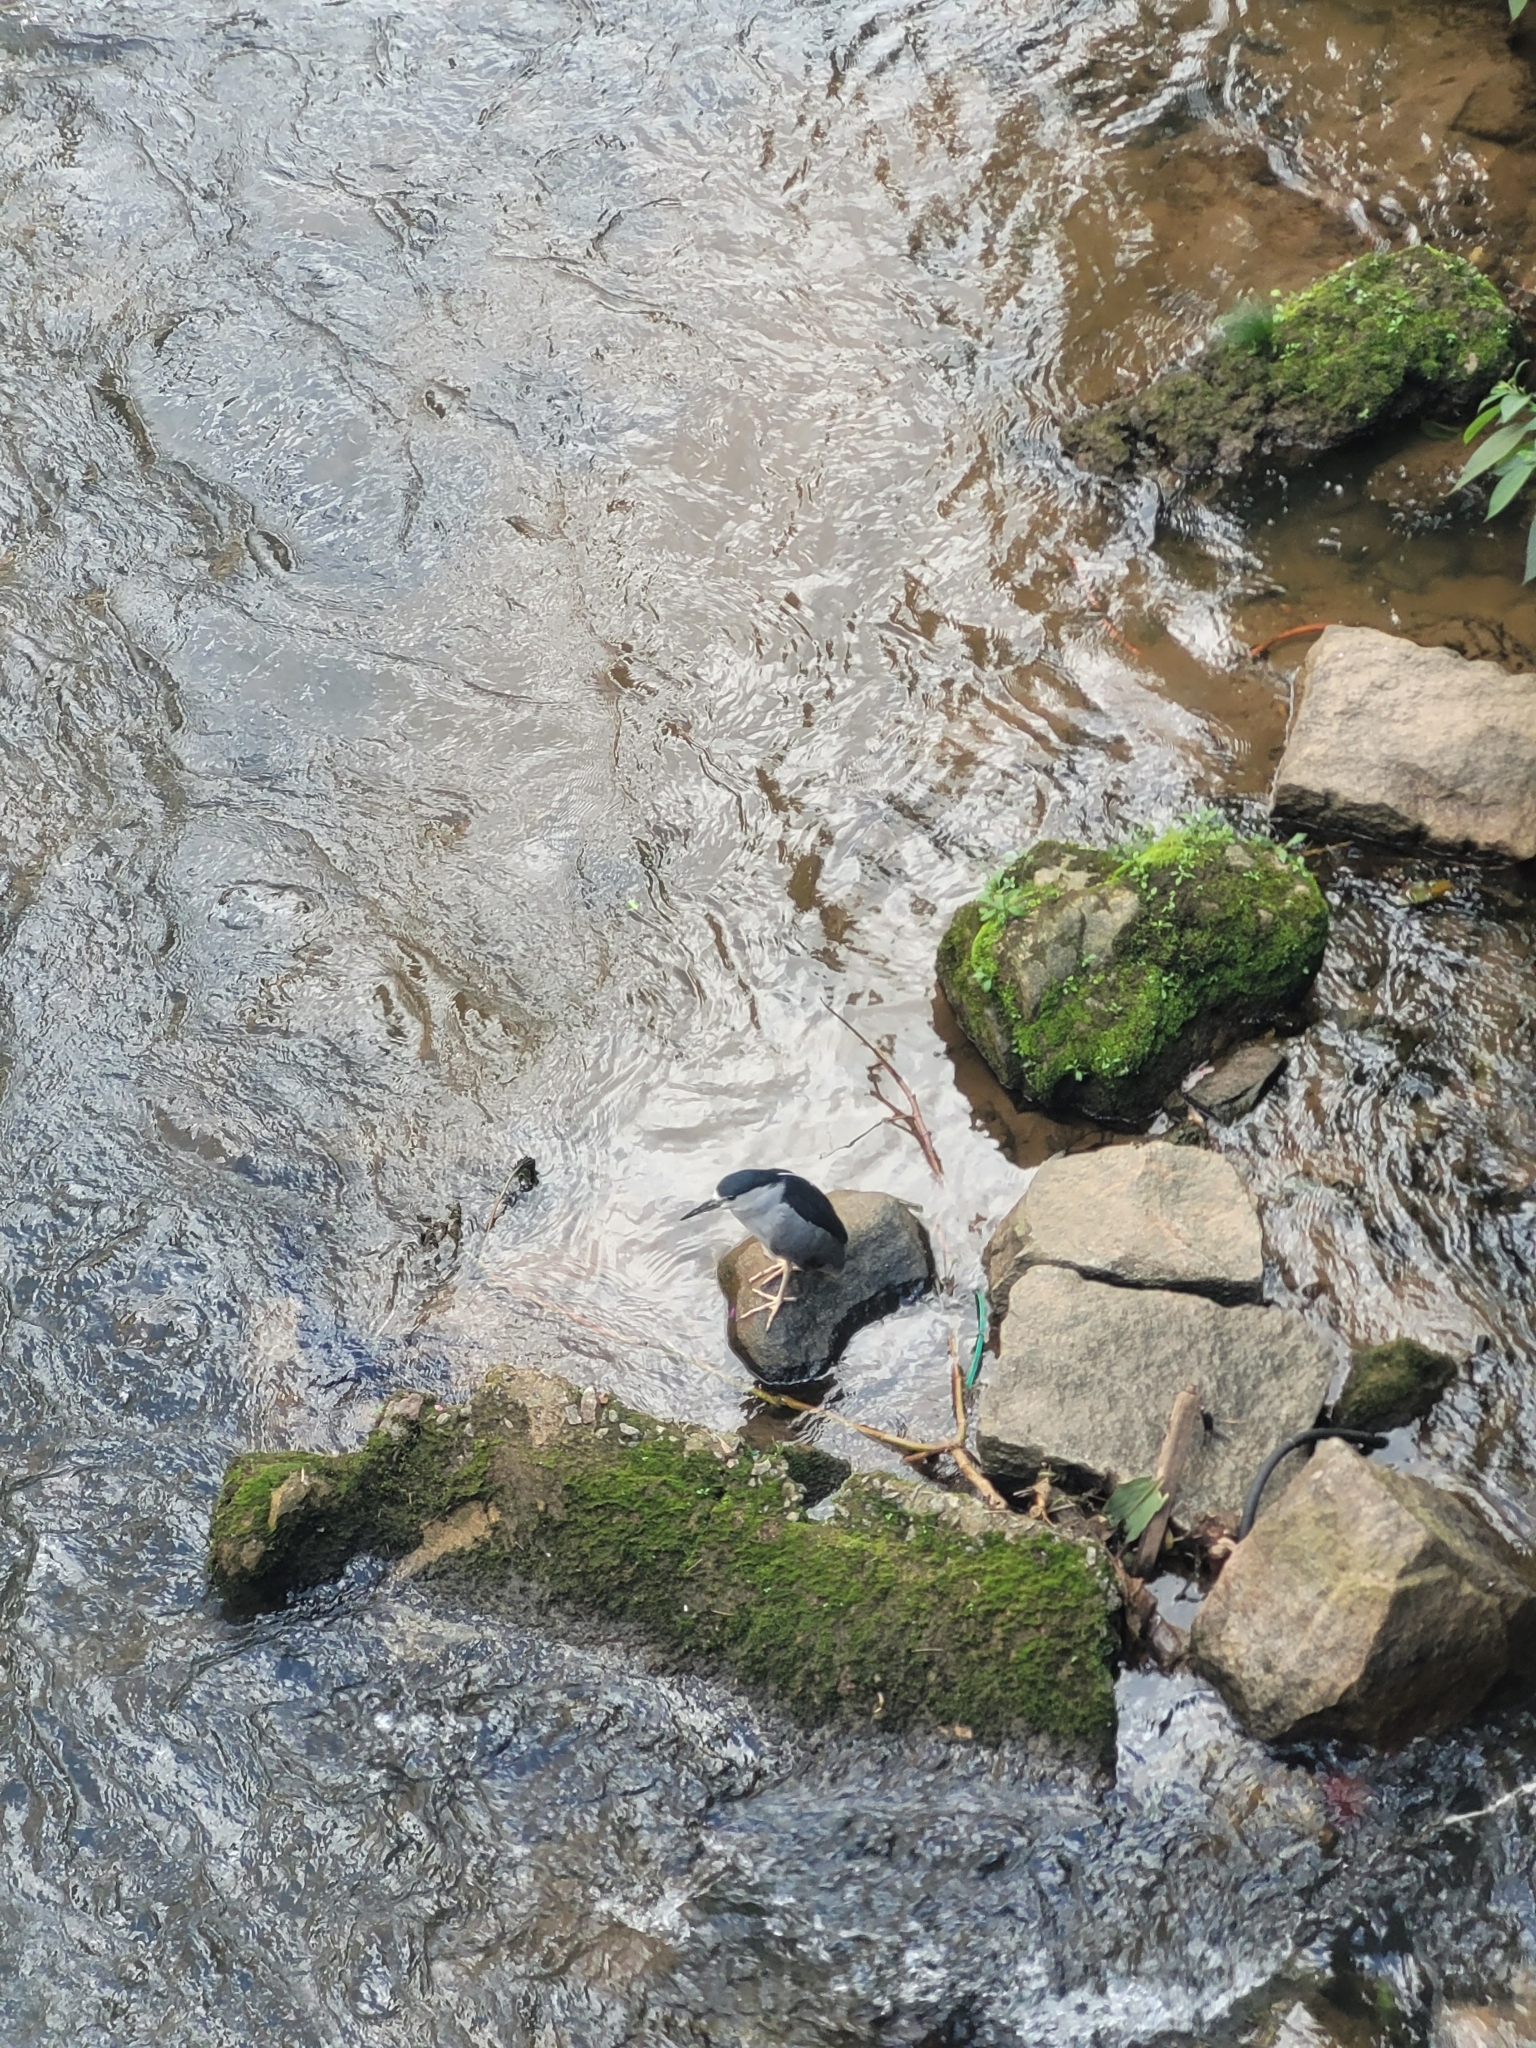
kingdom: Animalia
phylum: Chordata
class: Aves
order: Pelecaniformes
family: Ardeidae
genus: Nycticorax
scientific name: Nycticorax nycticorax
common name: Black-crowned night heron
